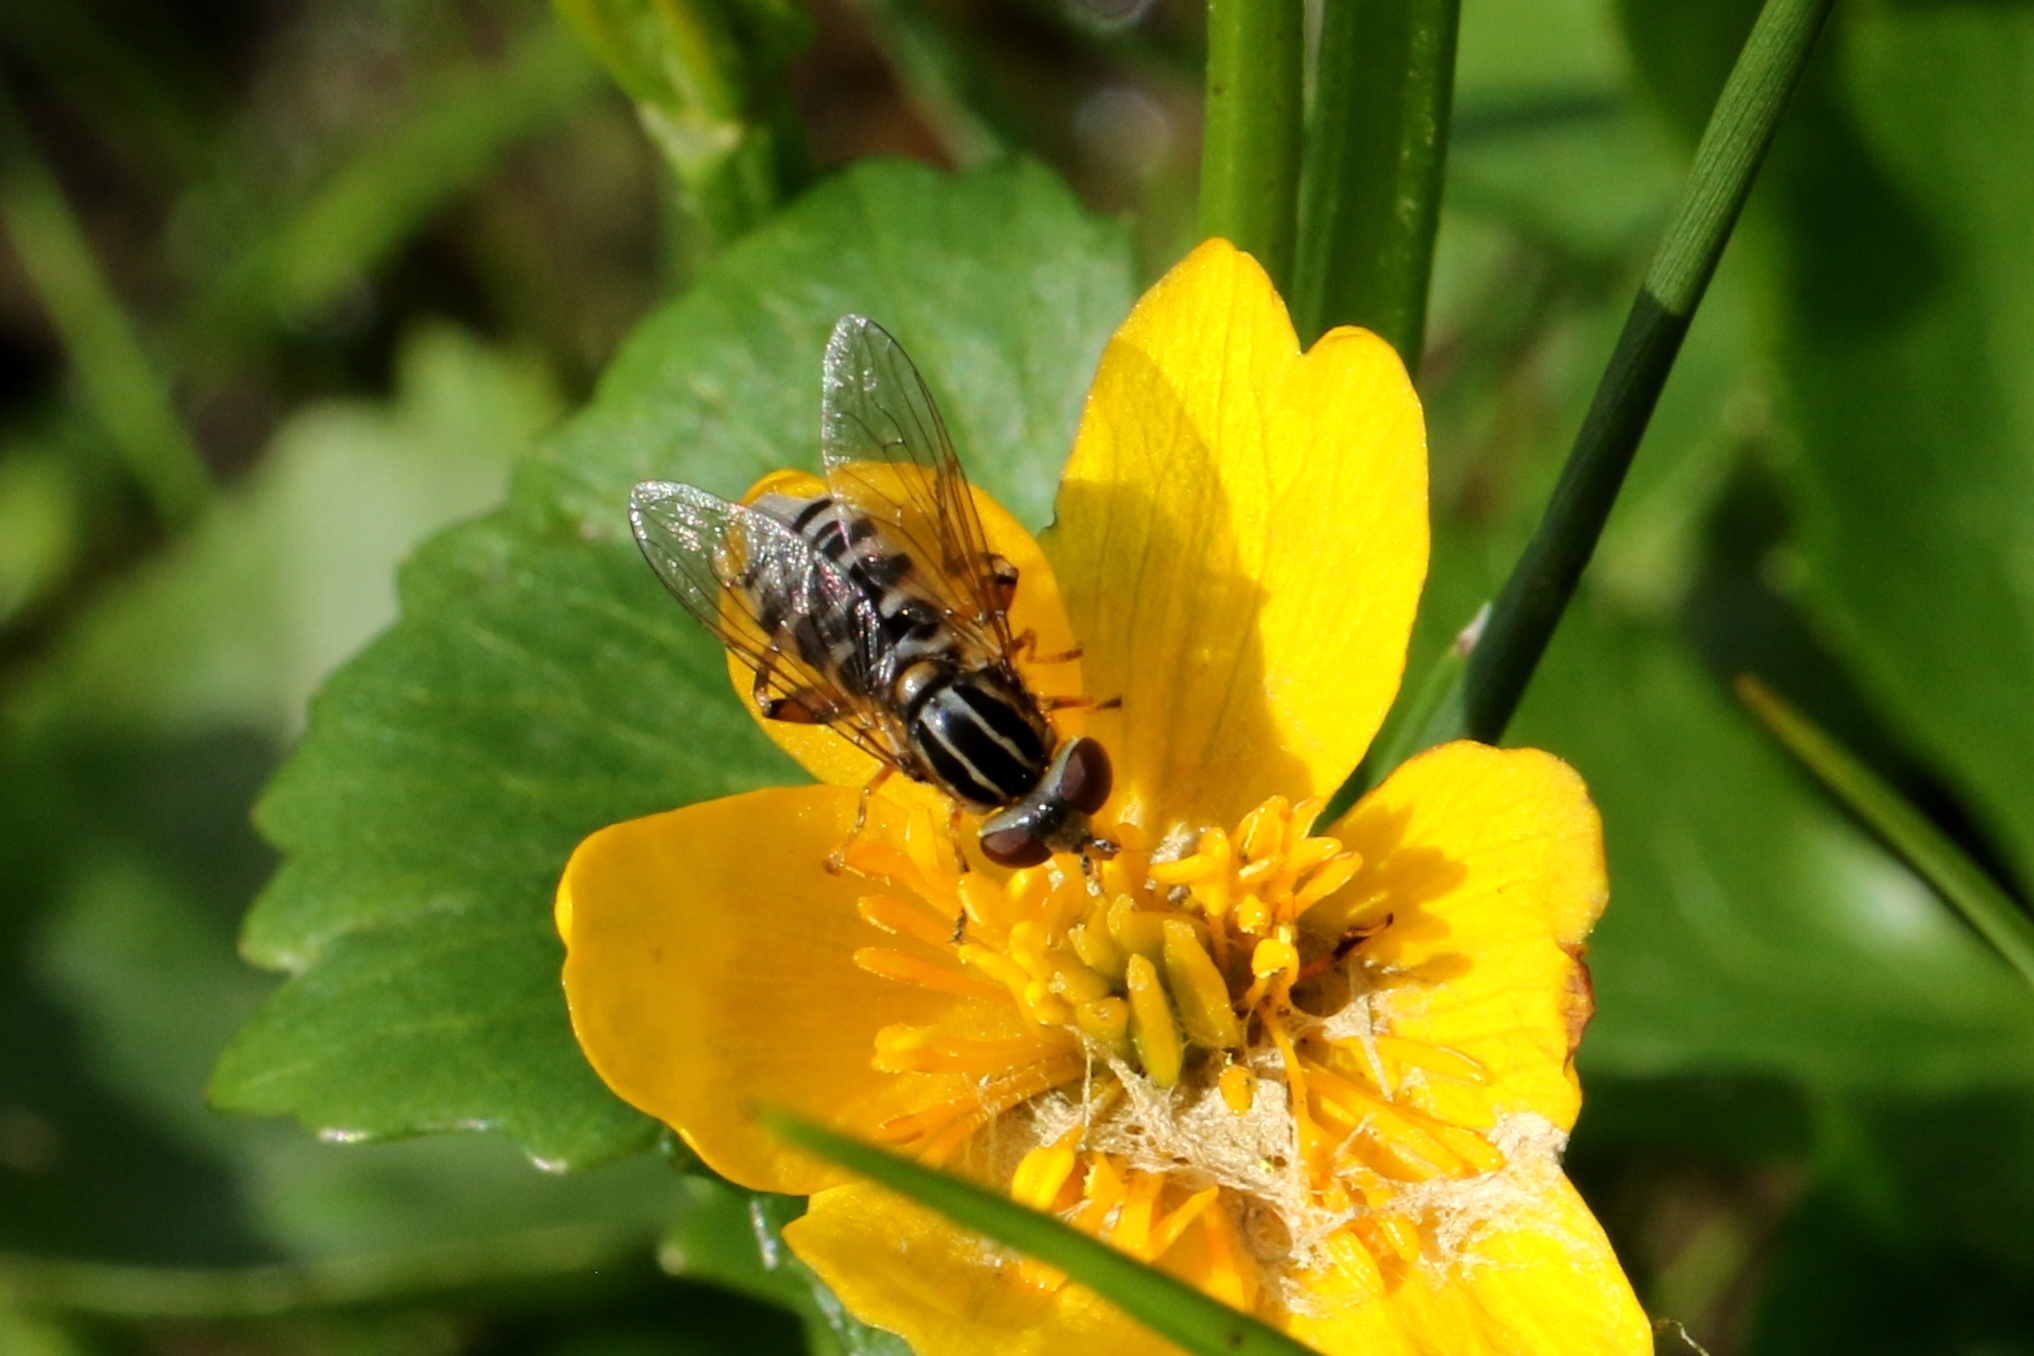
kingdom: Animalia
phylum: Arthropoda
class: Insecta
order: Diptera
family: Syrphidae
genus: Eurimyia
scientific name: Eurimyia stipatus
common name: Long-nosed swamp fly
